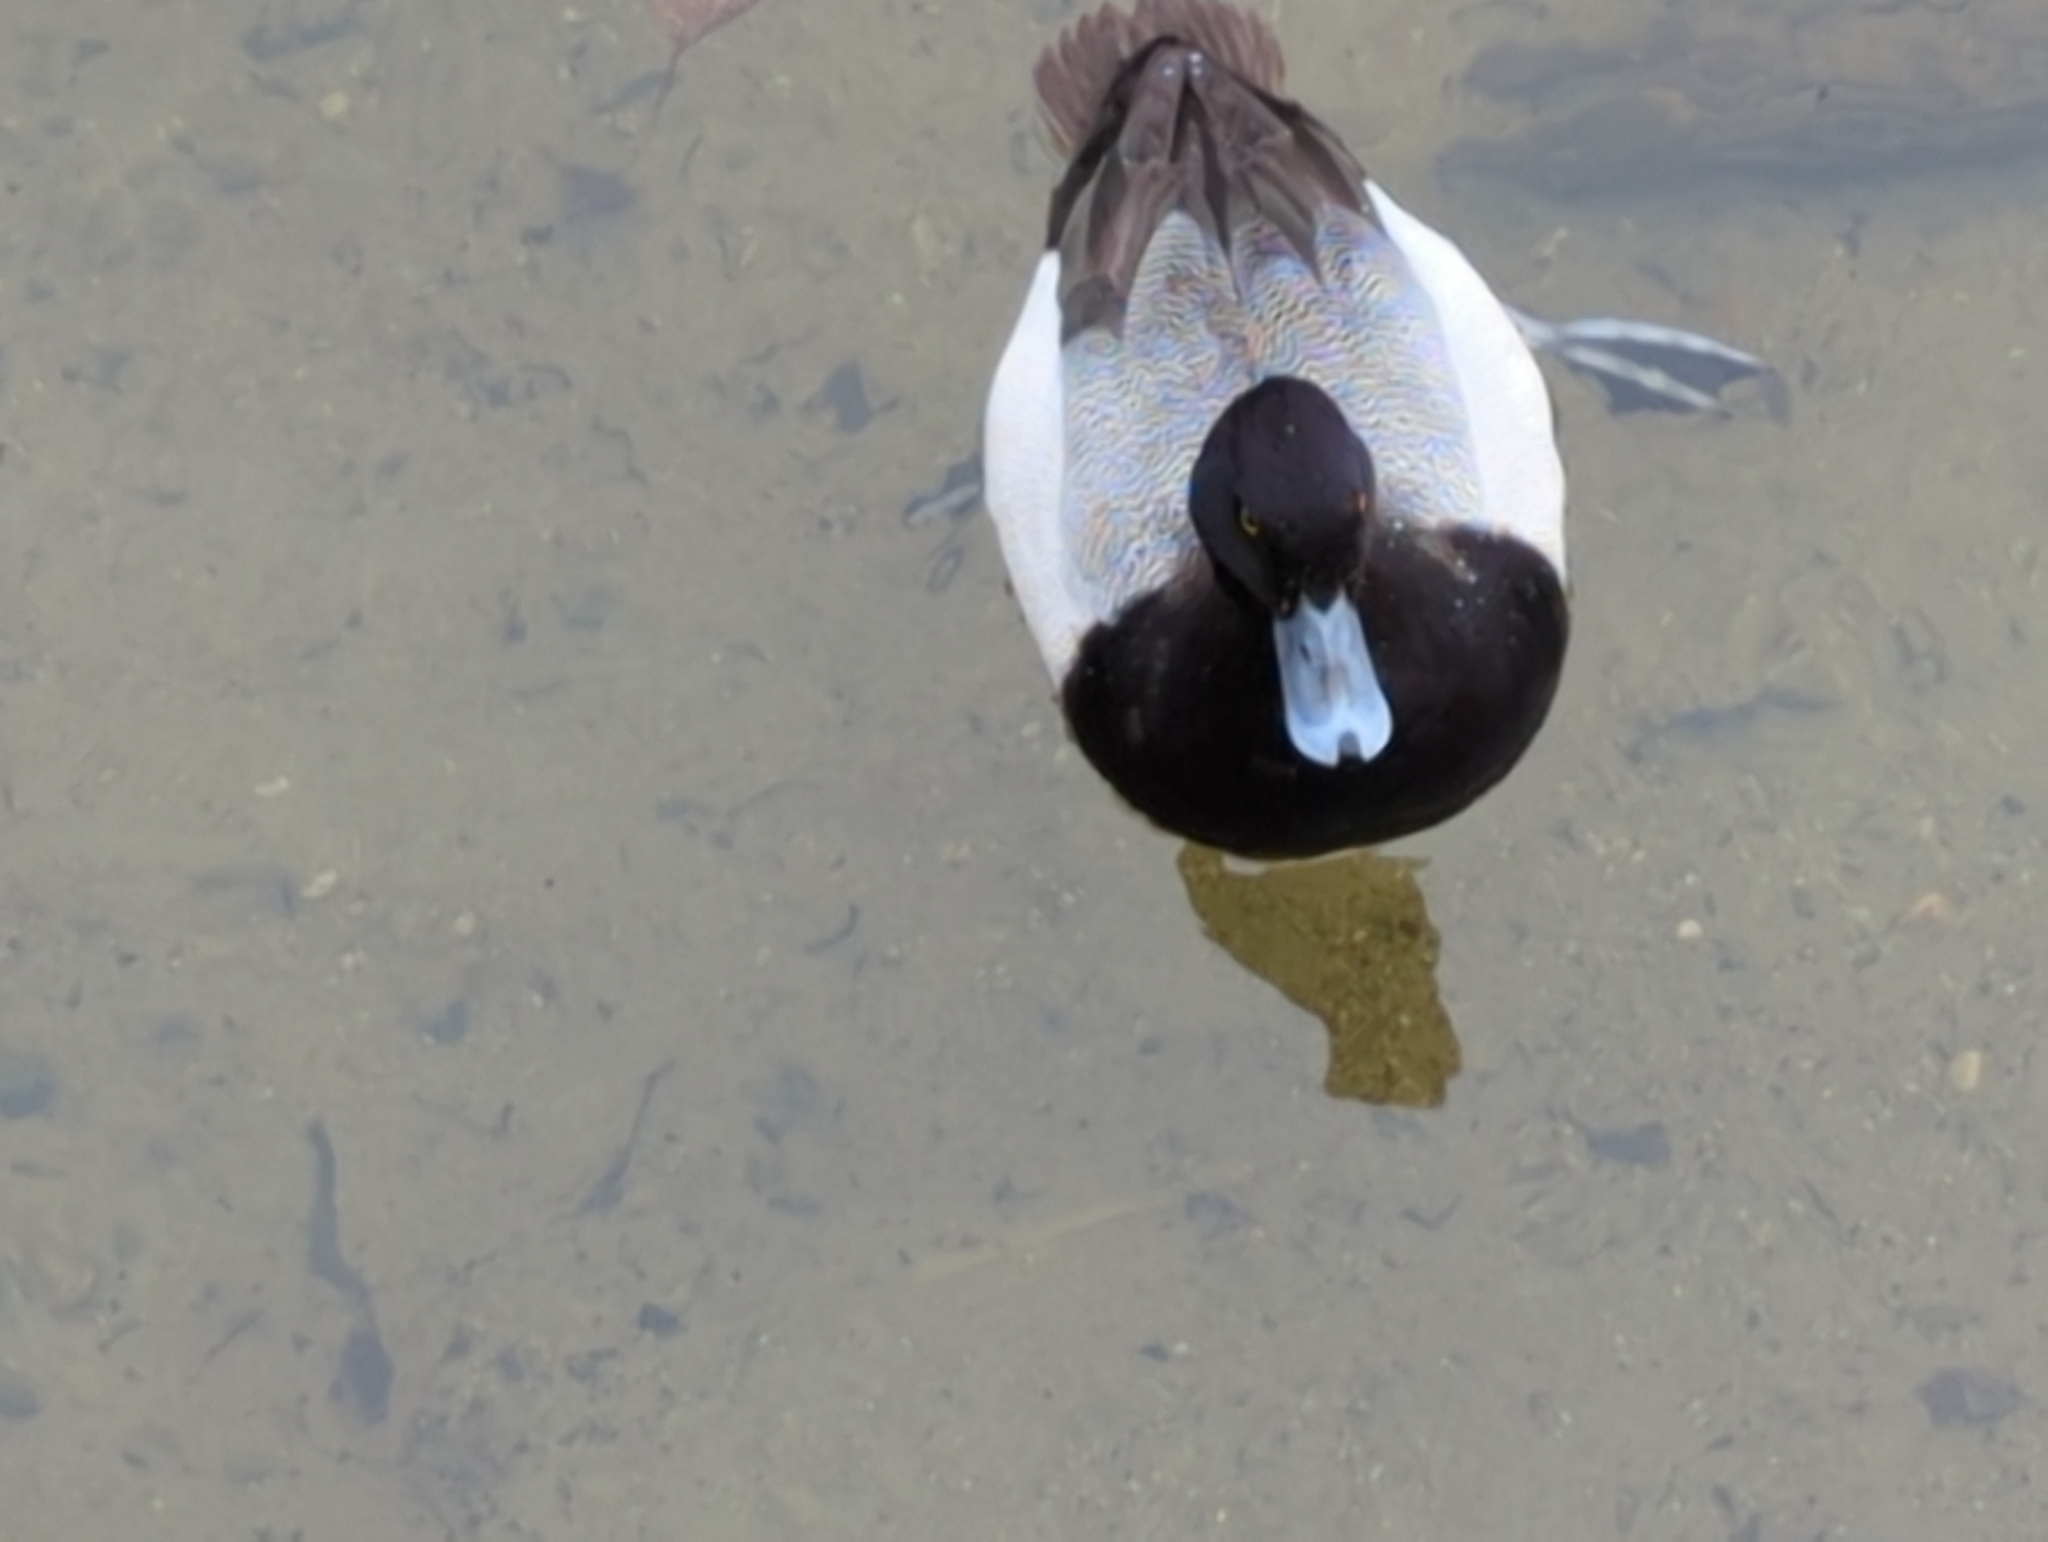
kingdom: Animalia
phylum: Chordata
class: Aves
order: Anseriformes
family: Anatidae
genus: Aythya
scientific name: Aythya affinis
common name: Lesser scaup
